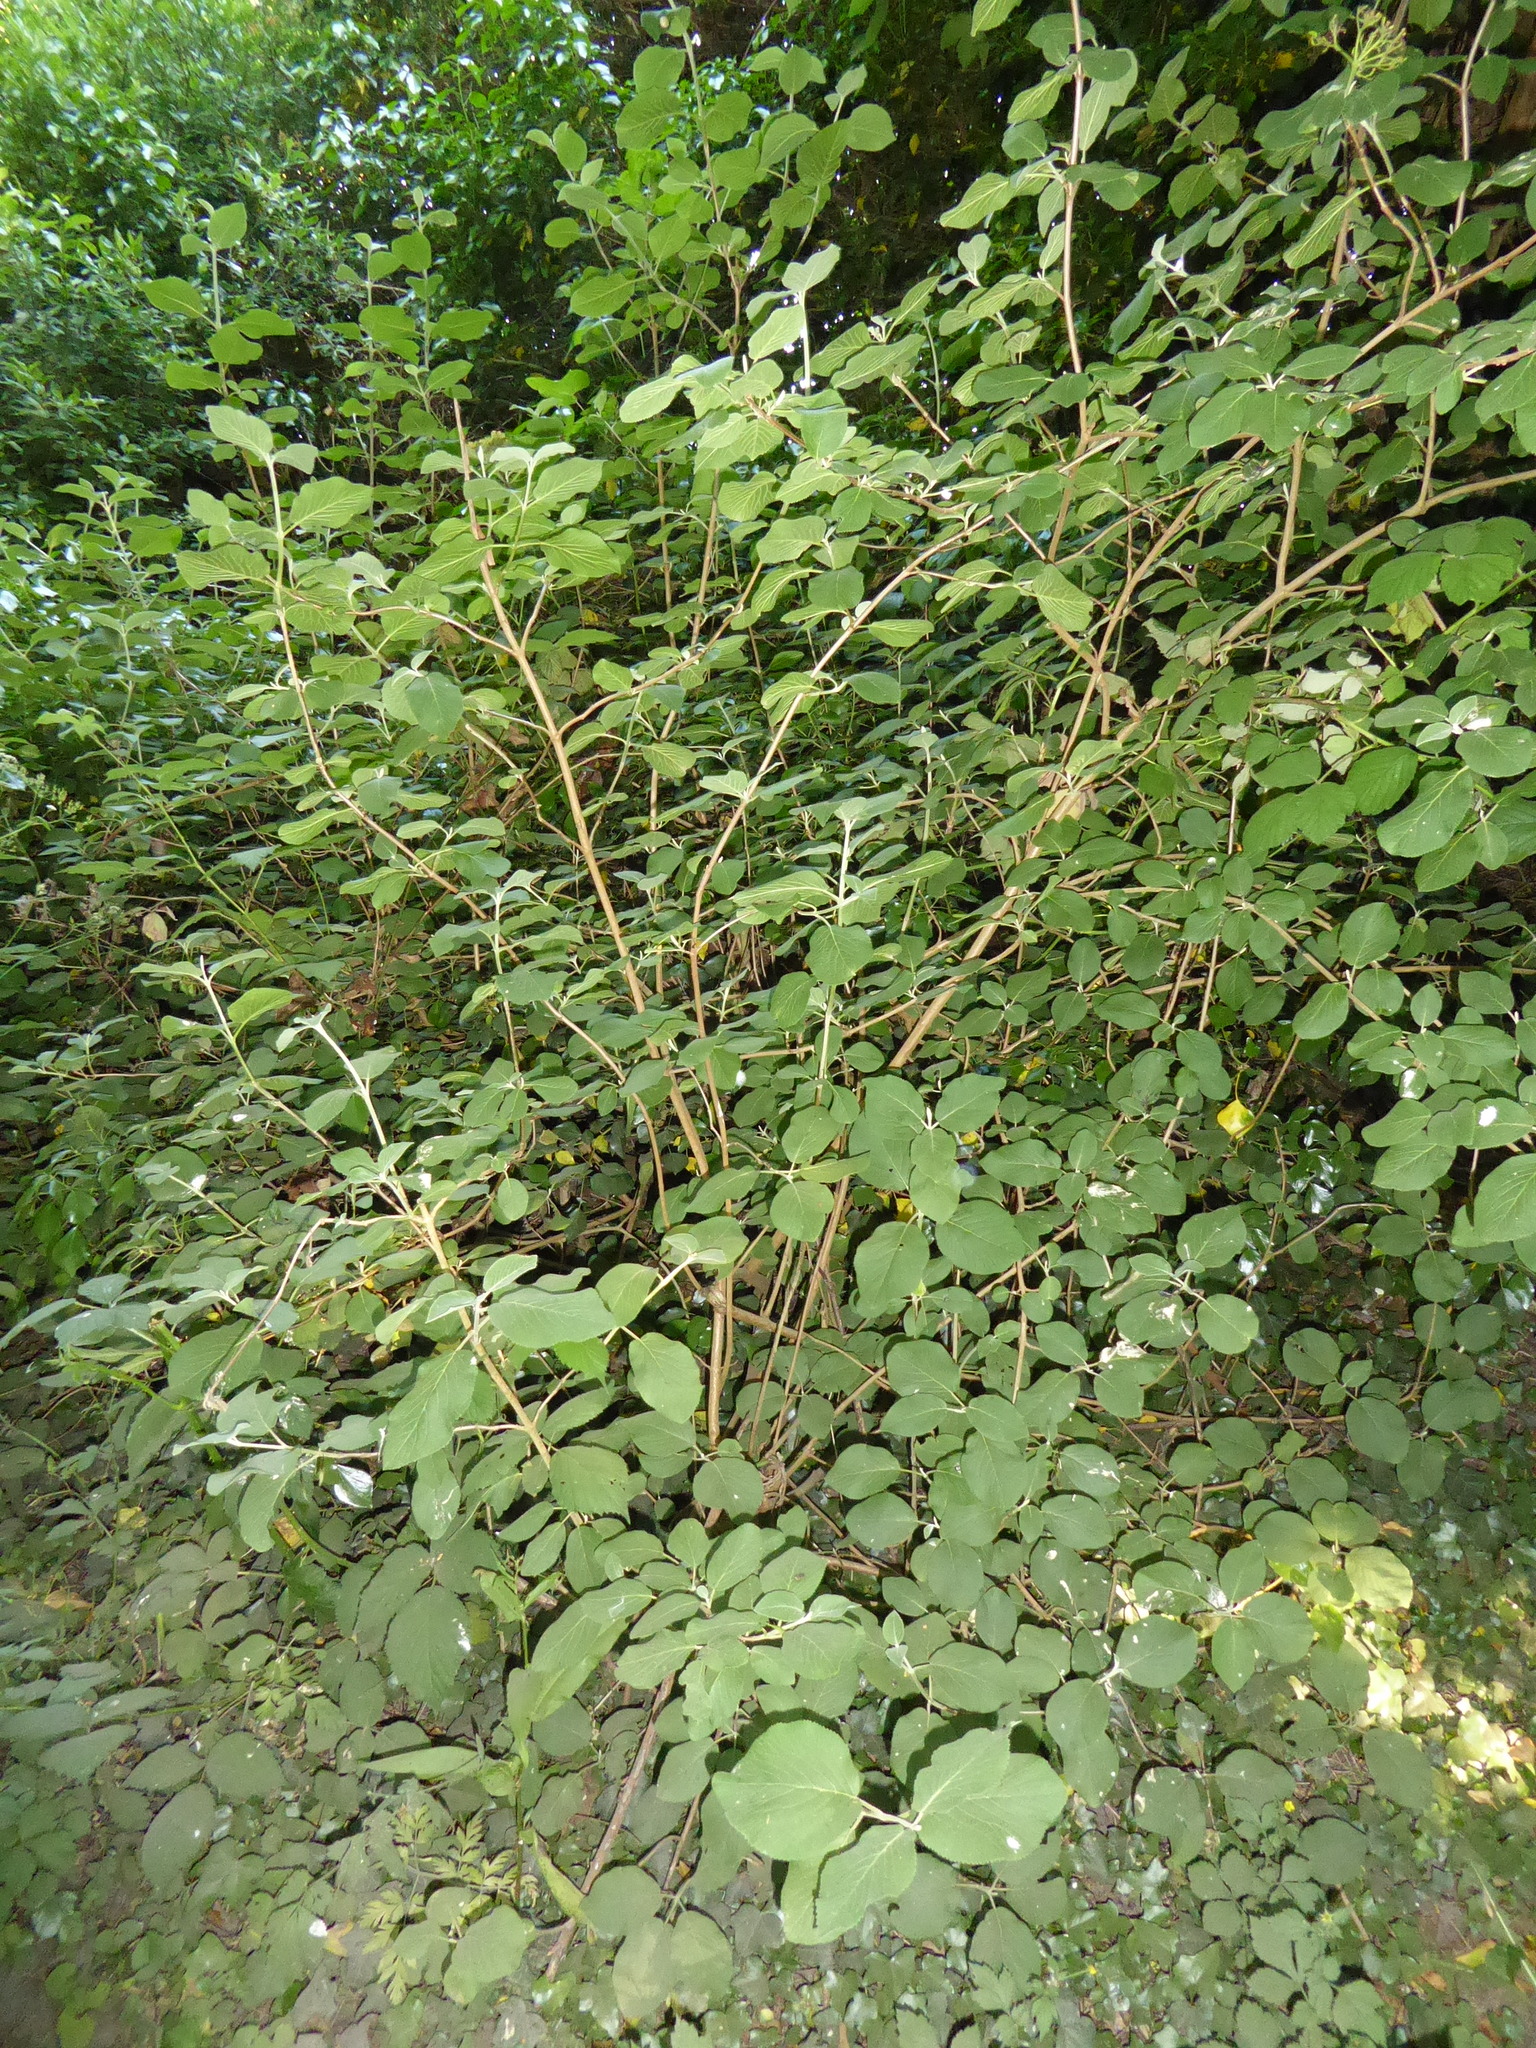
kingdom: Plantae
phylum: Tracheophyta
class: Magnoliopsida
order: Dipsacales
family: Viburnaceae
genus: Viburnum
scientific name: Viburnum lantana
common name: Wayfaring tree
